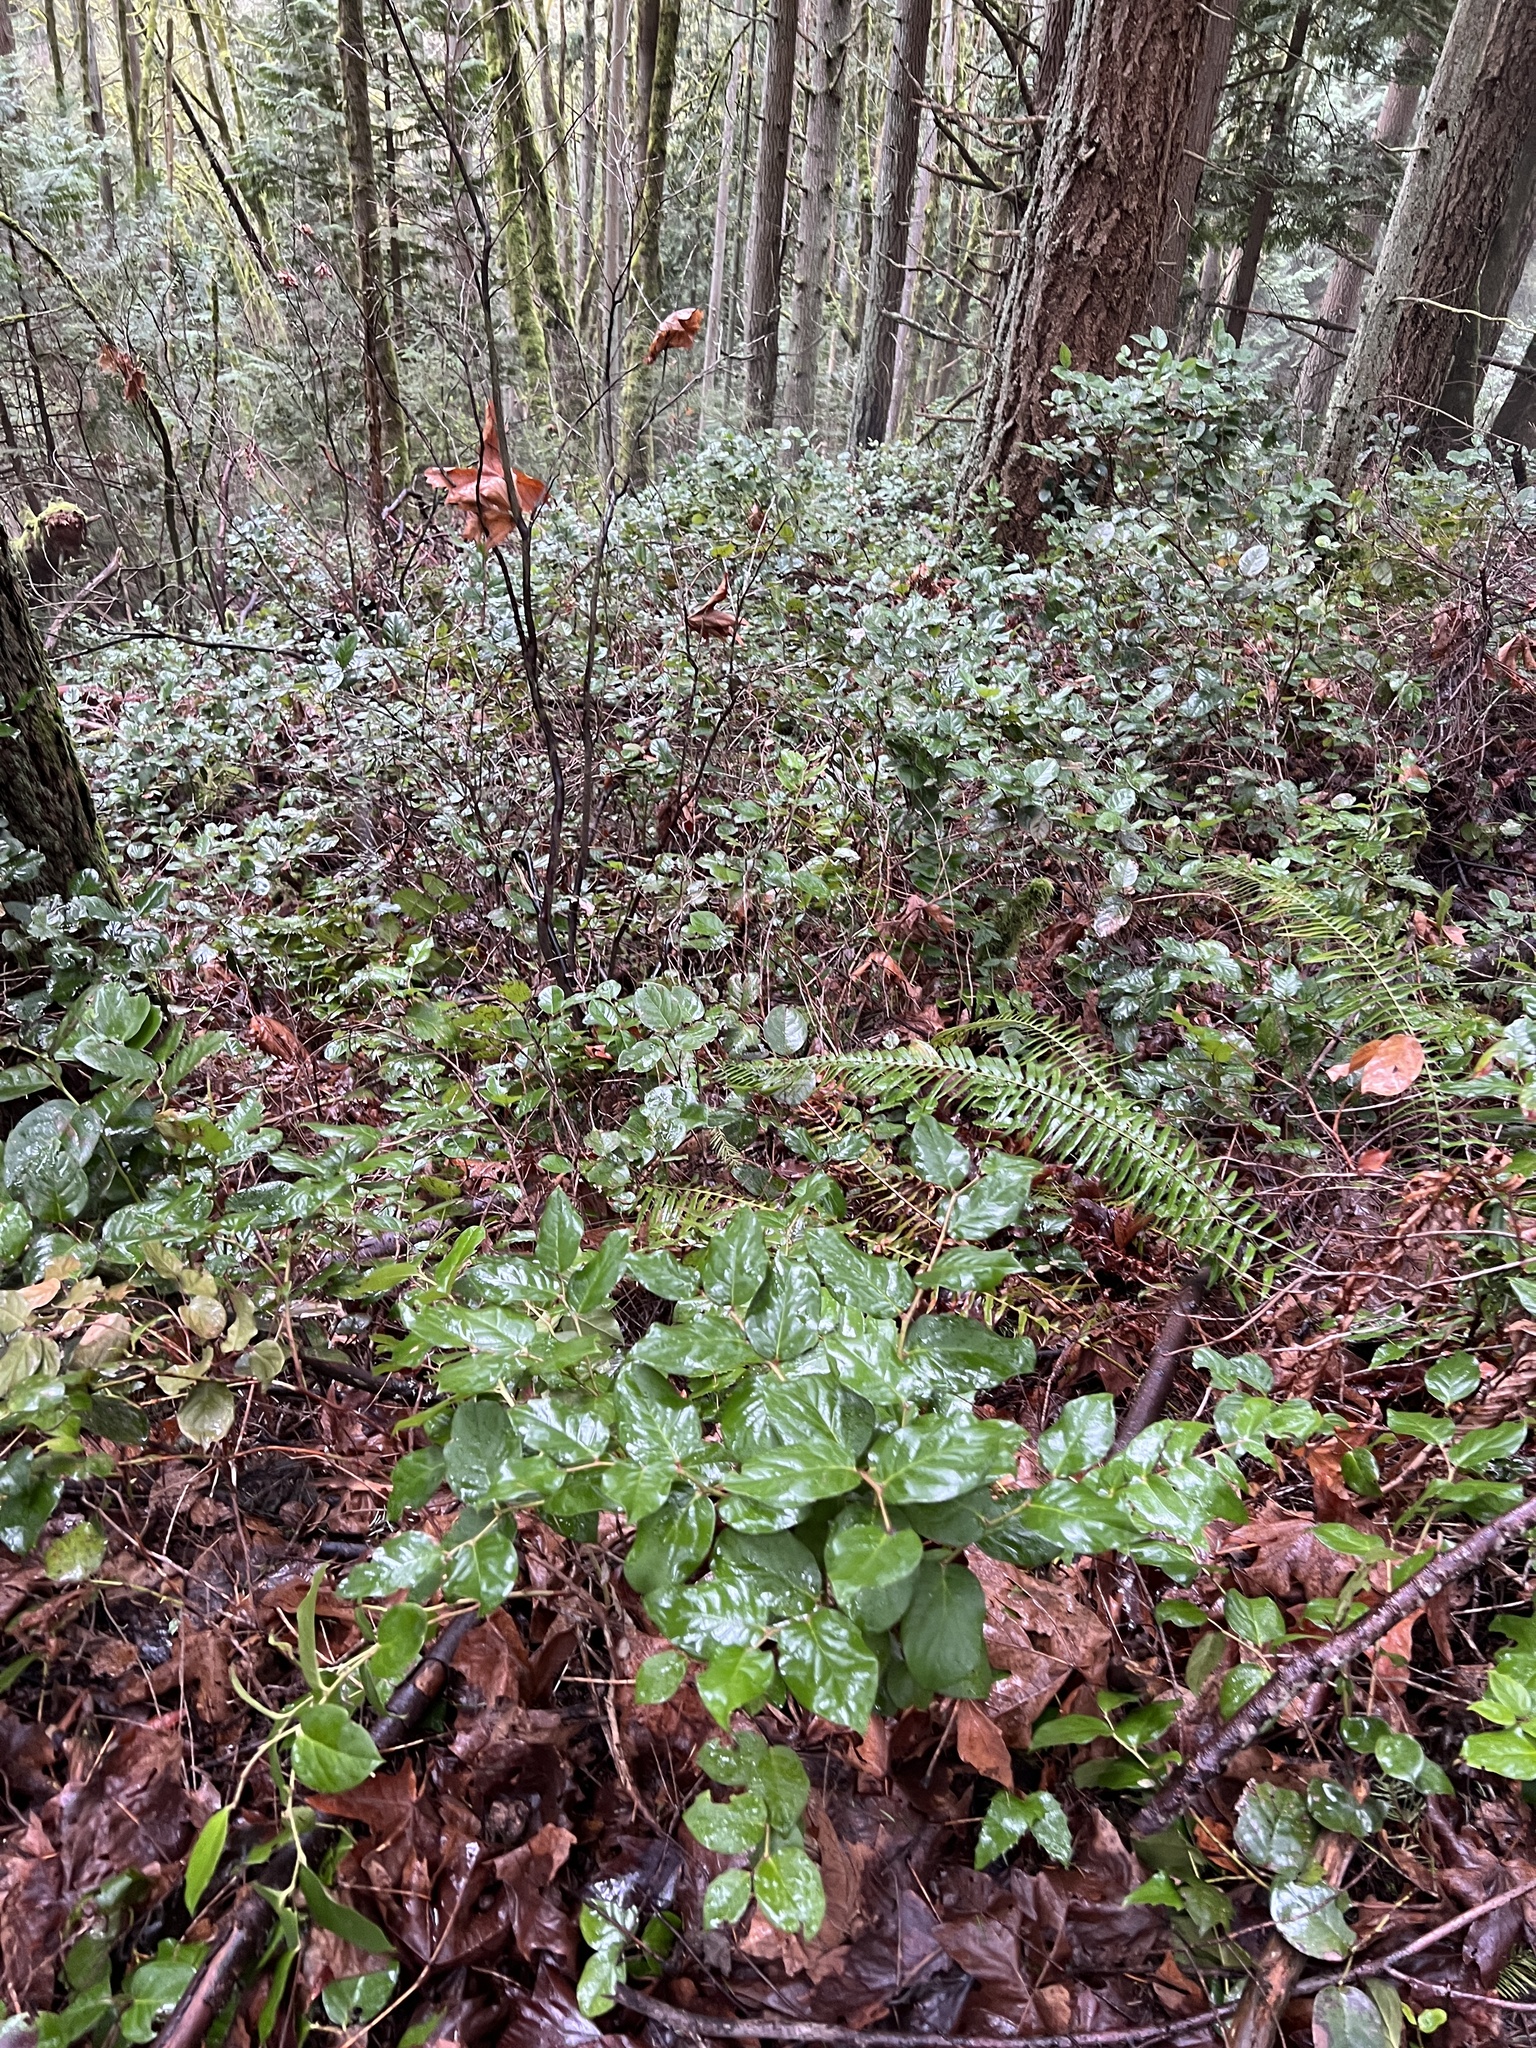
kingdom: Plantae
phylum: Tracheophyta
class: Magnoliopsida
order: Ericales
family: Ericaceae
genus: Gaultheria
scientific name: Gaultheria shallon
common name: Shallon
